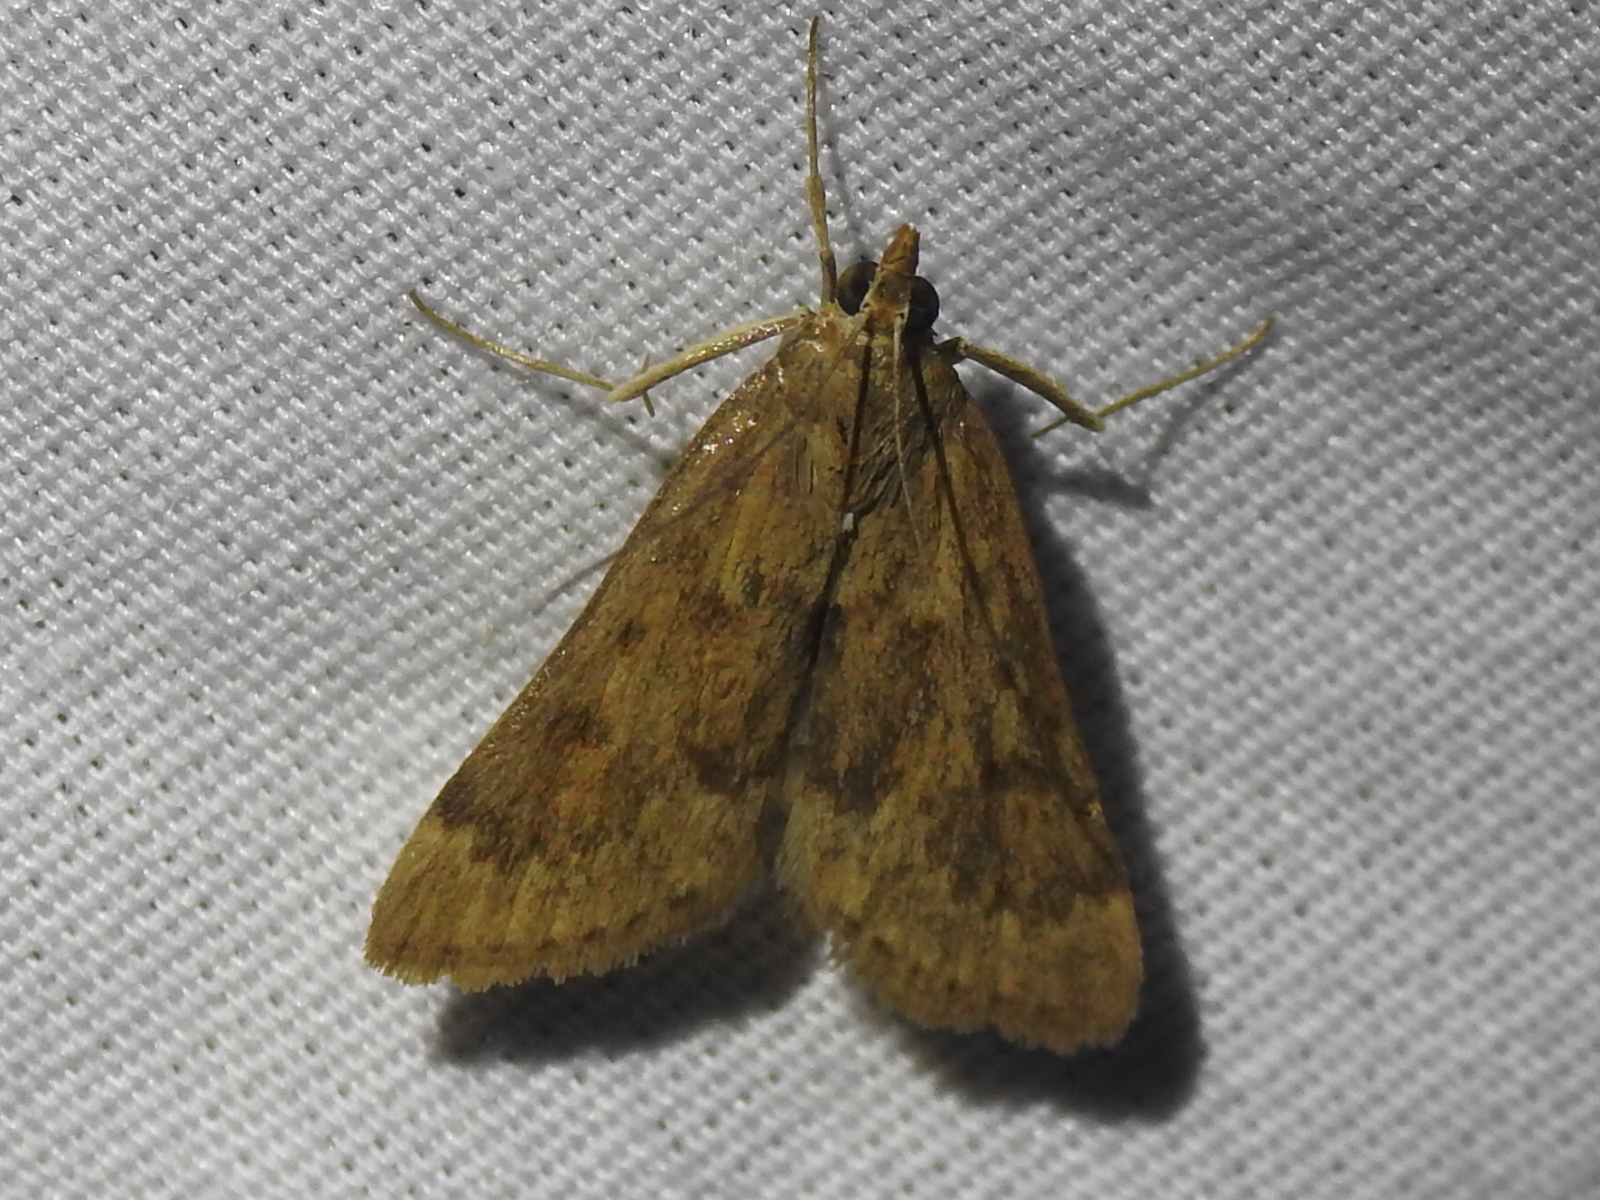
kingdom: Animalia
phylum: Arthropoda
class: Insecta
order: Lepidoptera
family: Crambidae
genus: Achyra
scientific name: Achyra rantalis
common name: Garden webworm
